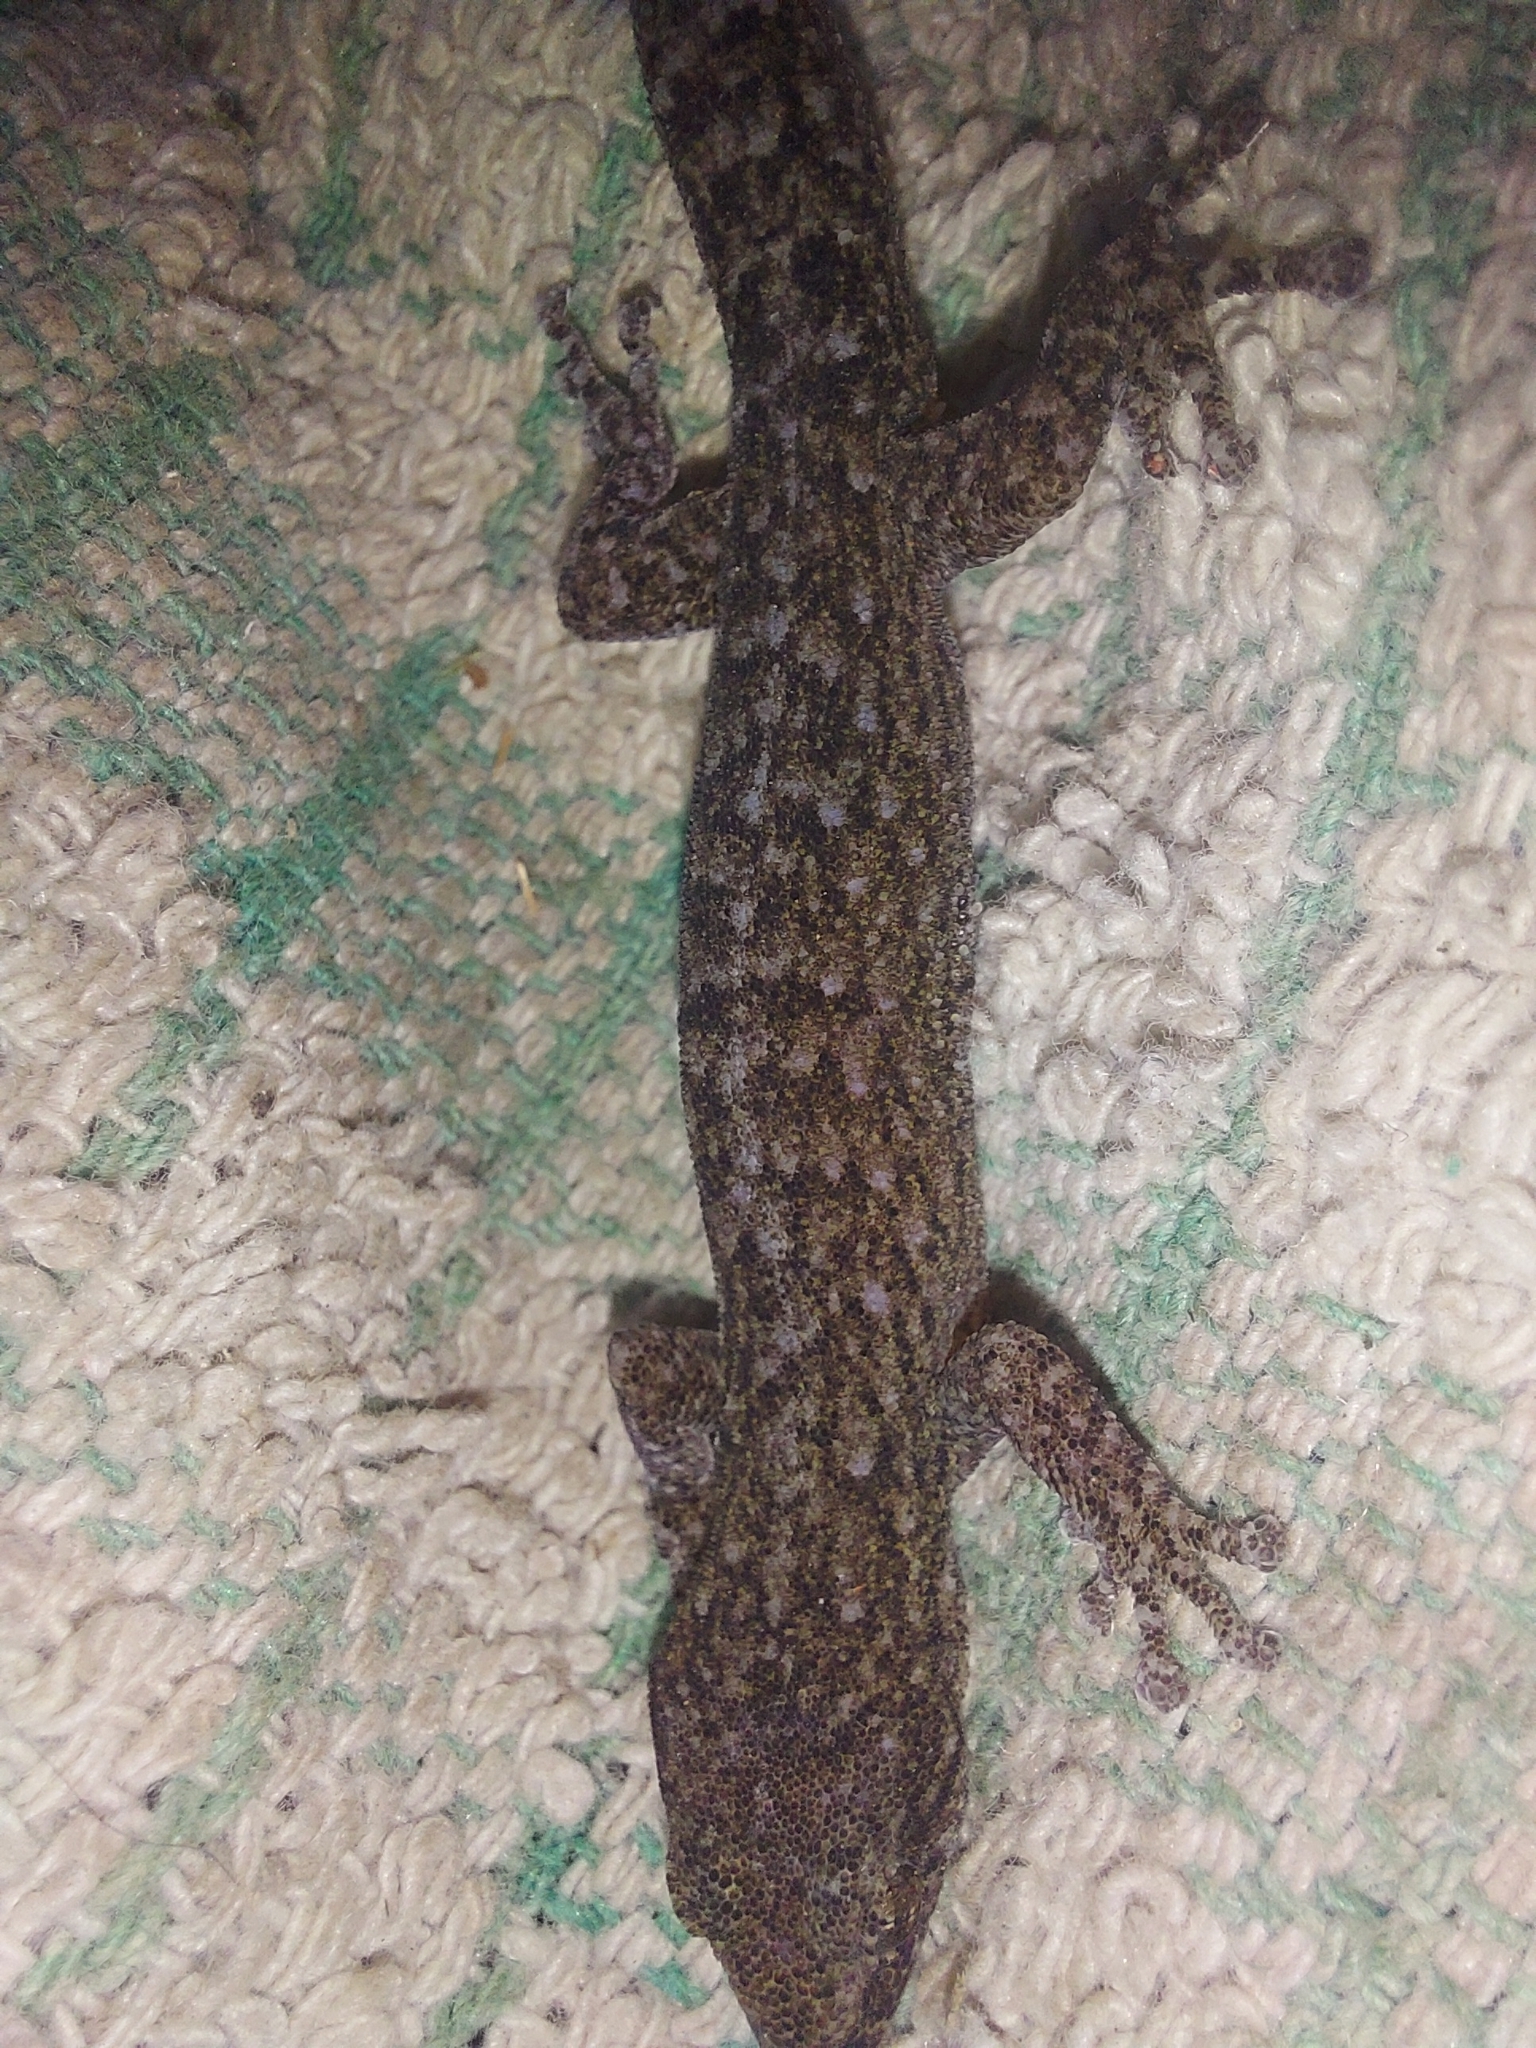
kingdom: Animalia
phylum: Chordata
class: Squamata
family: Gekkonidae
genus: Afrogecko
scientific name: Afrogecko porphyreus
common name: Marbled leaf-toed gecko
